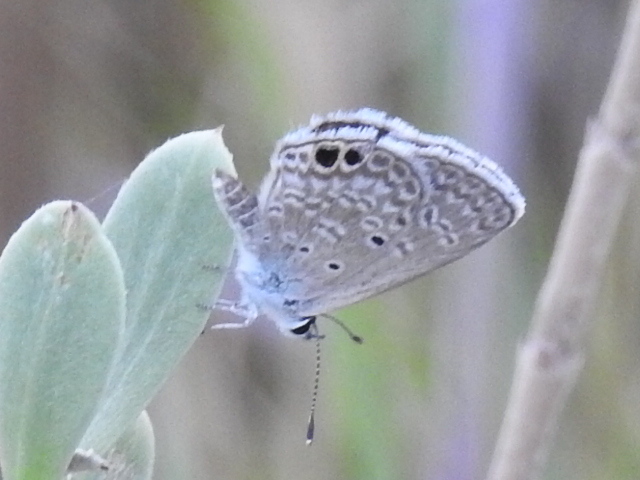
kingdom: Animalia
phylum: Arthropoda
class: Insecta
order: Lepidoptera
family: Lycaenidae
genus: Hemiargus
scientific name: Hemiargus ceraunus
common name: Ceraunus blue
